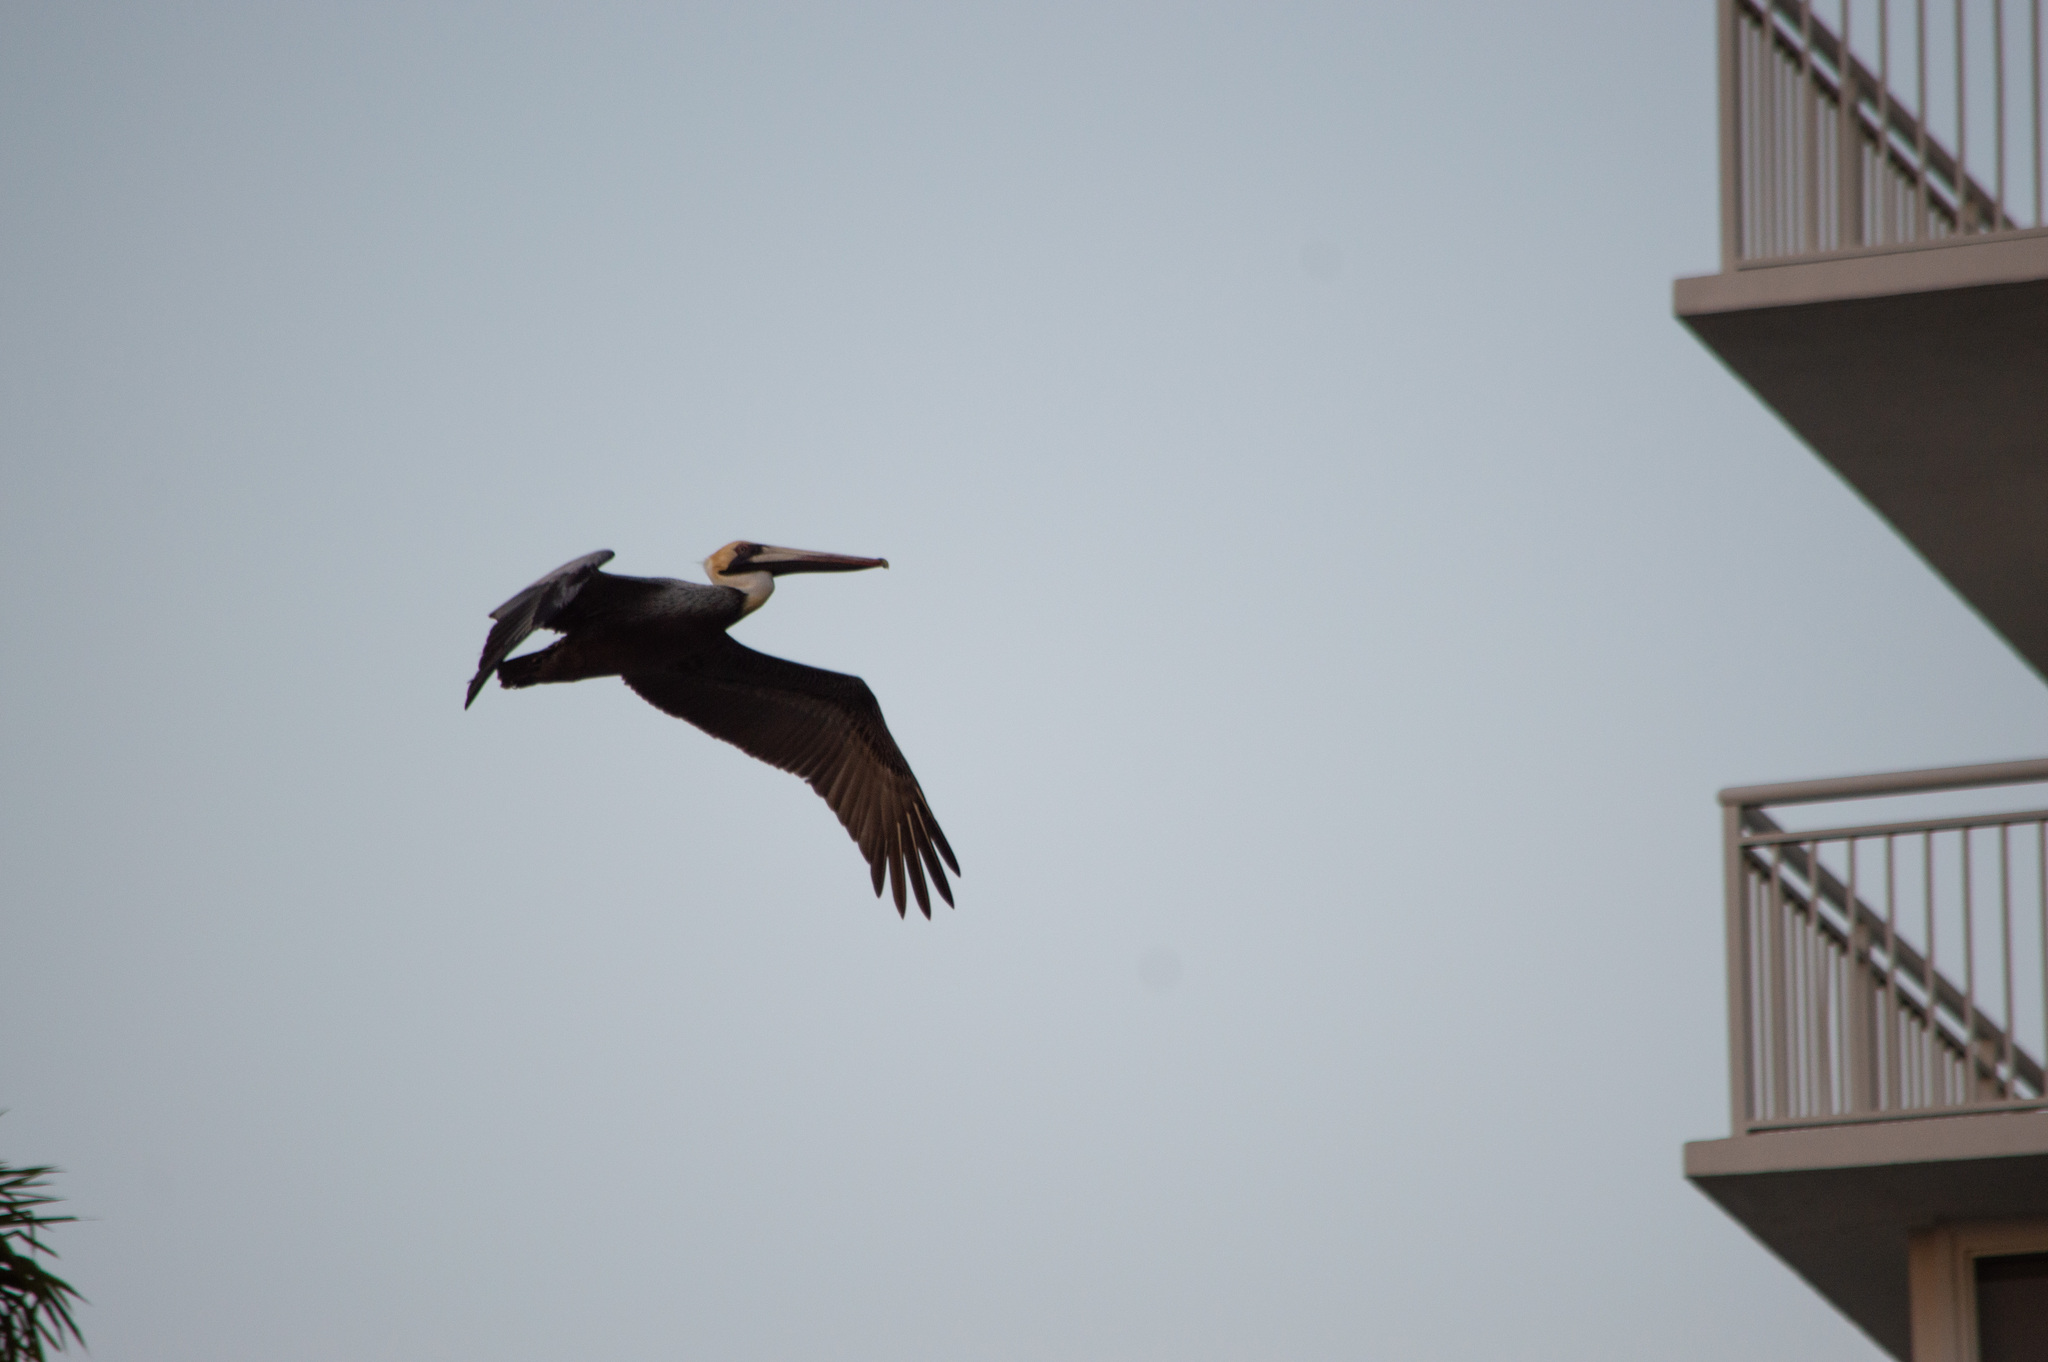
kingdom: Animalia
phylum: Chordata
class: Aves
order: Pelecaniformes
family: Pelecanidae
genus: Pelecanus
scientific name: Pelecanus occidentalis
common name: Brown pelican
